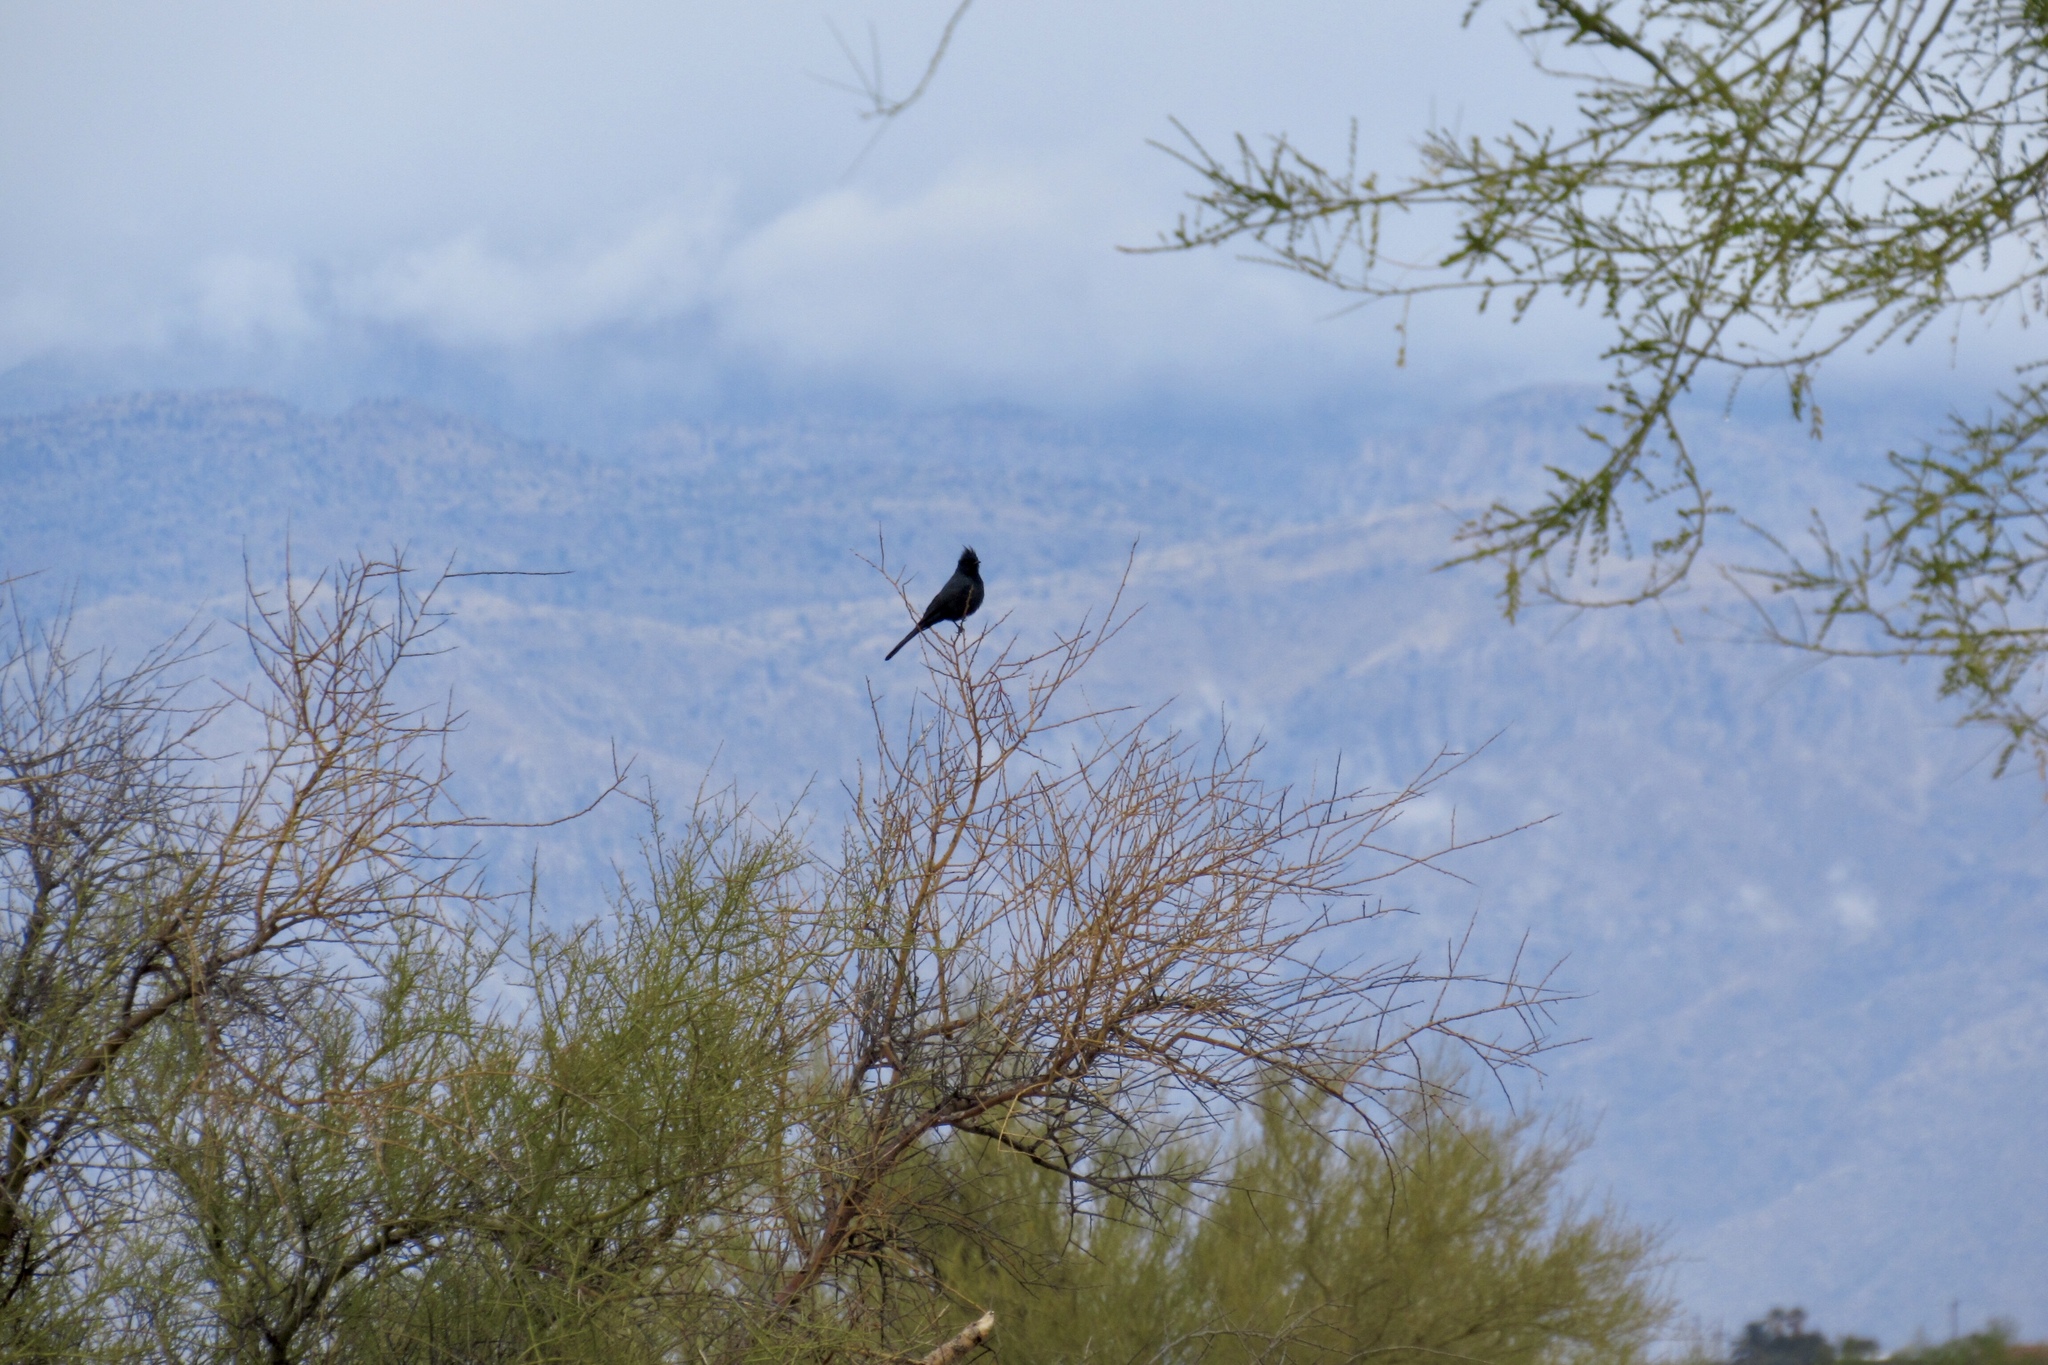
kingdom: Animalia
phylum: Chordata
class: Aves
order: Passeriformes
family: Ptilogonatidae
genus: Phainopepla
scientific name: Phainopepla nitens
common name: Phainopepla
